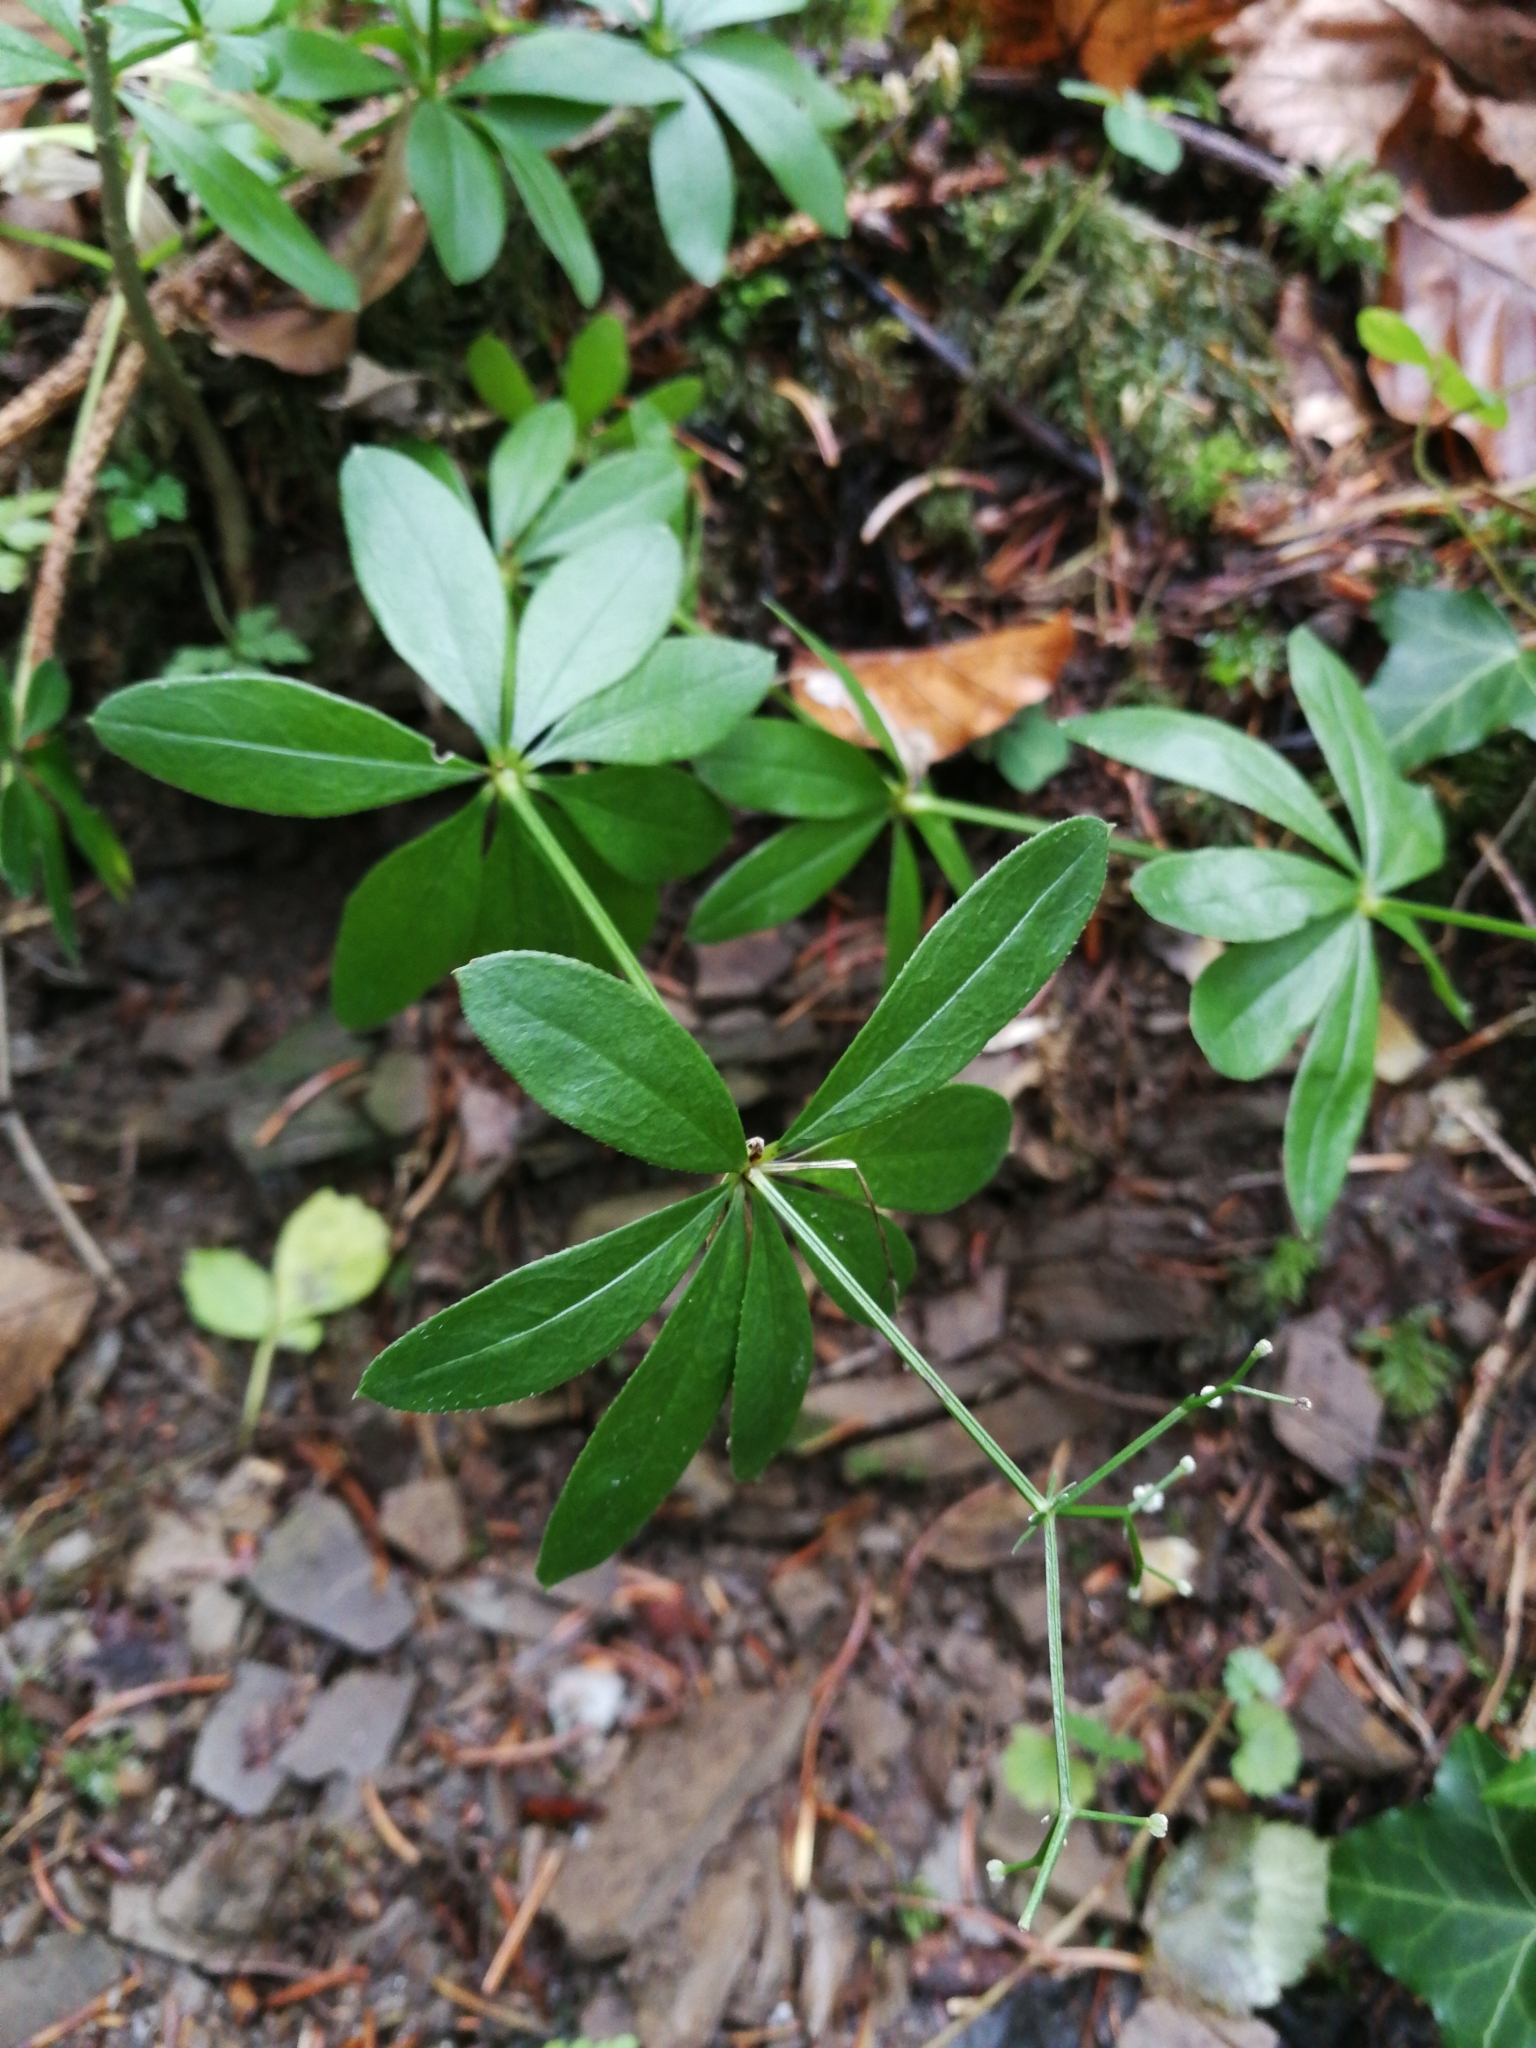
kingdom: Plantae
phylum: Tracheophyta
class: Magnoliopsida
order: Gentianales
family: Rubiaceae
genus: Galium
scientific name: Galium odoratum
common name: Sweet woodruff
